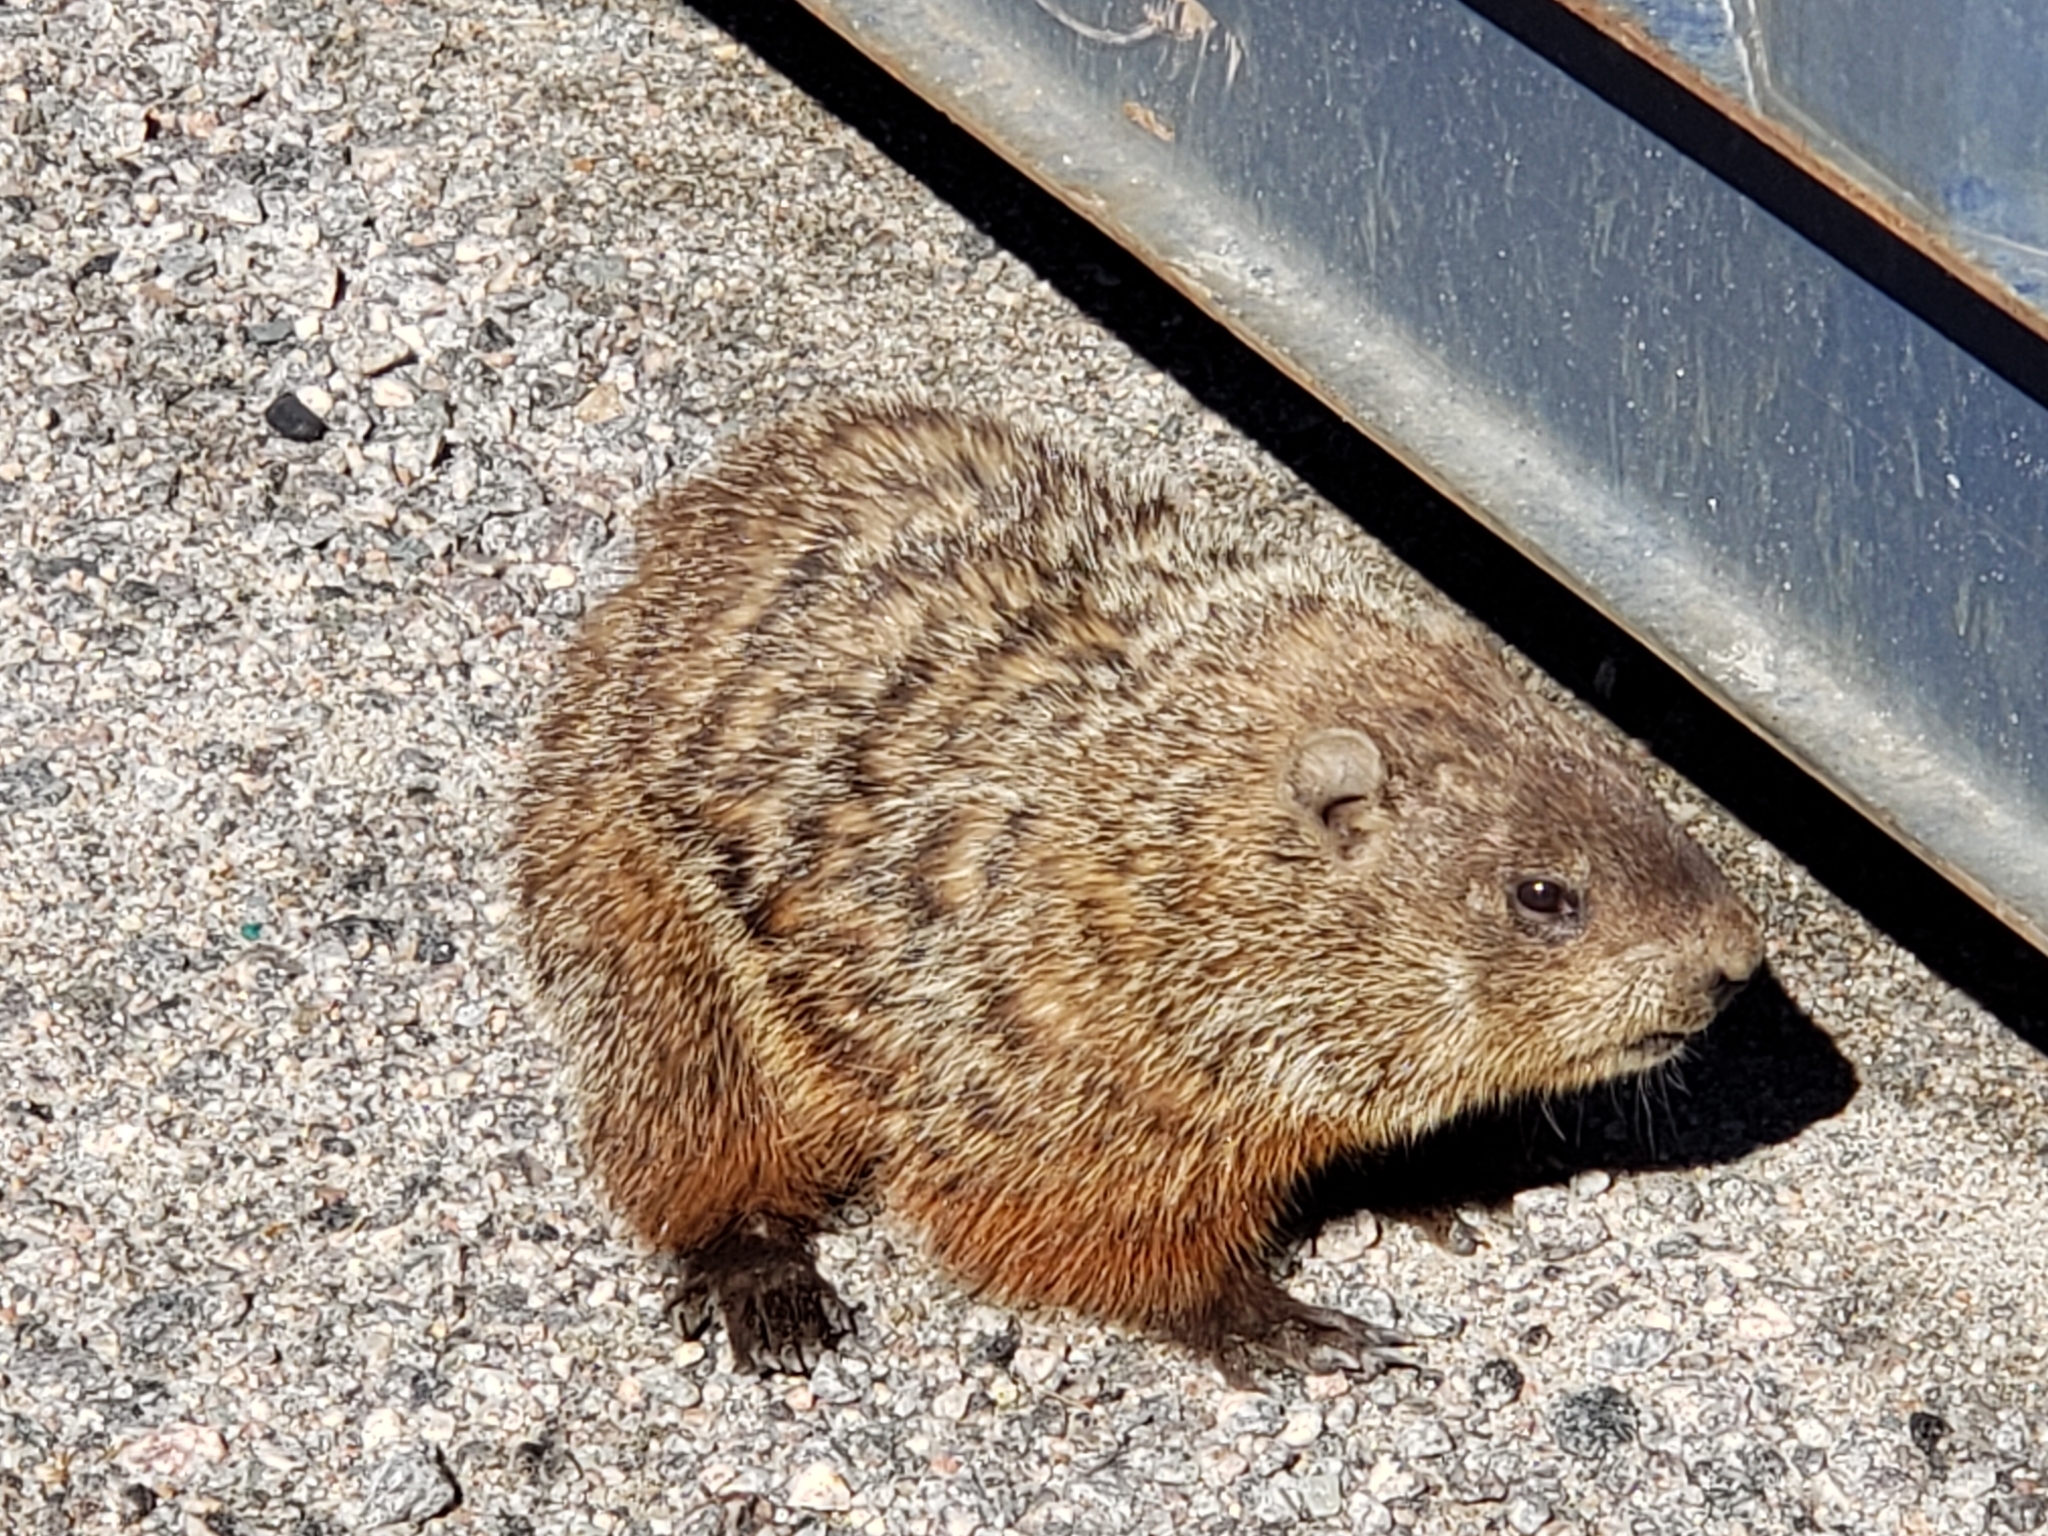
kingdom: Animalia
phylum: Chordata
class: Mammalia
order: Rodentia
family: Sciuridae
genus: Marmota
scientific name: Marmota monax
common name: Groundhog
